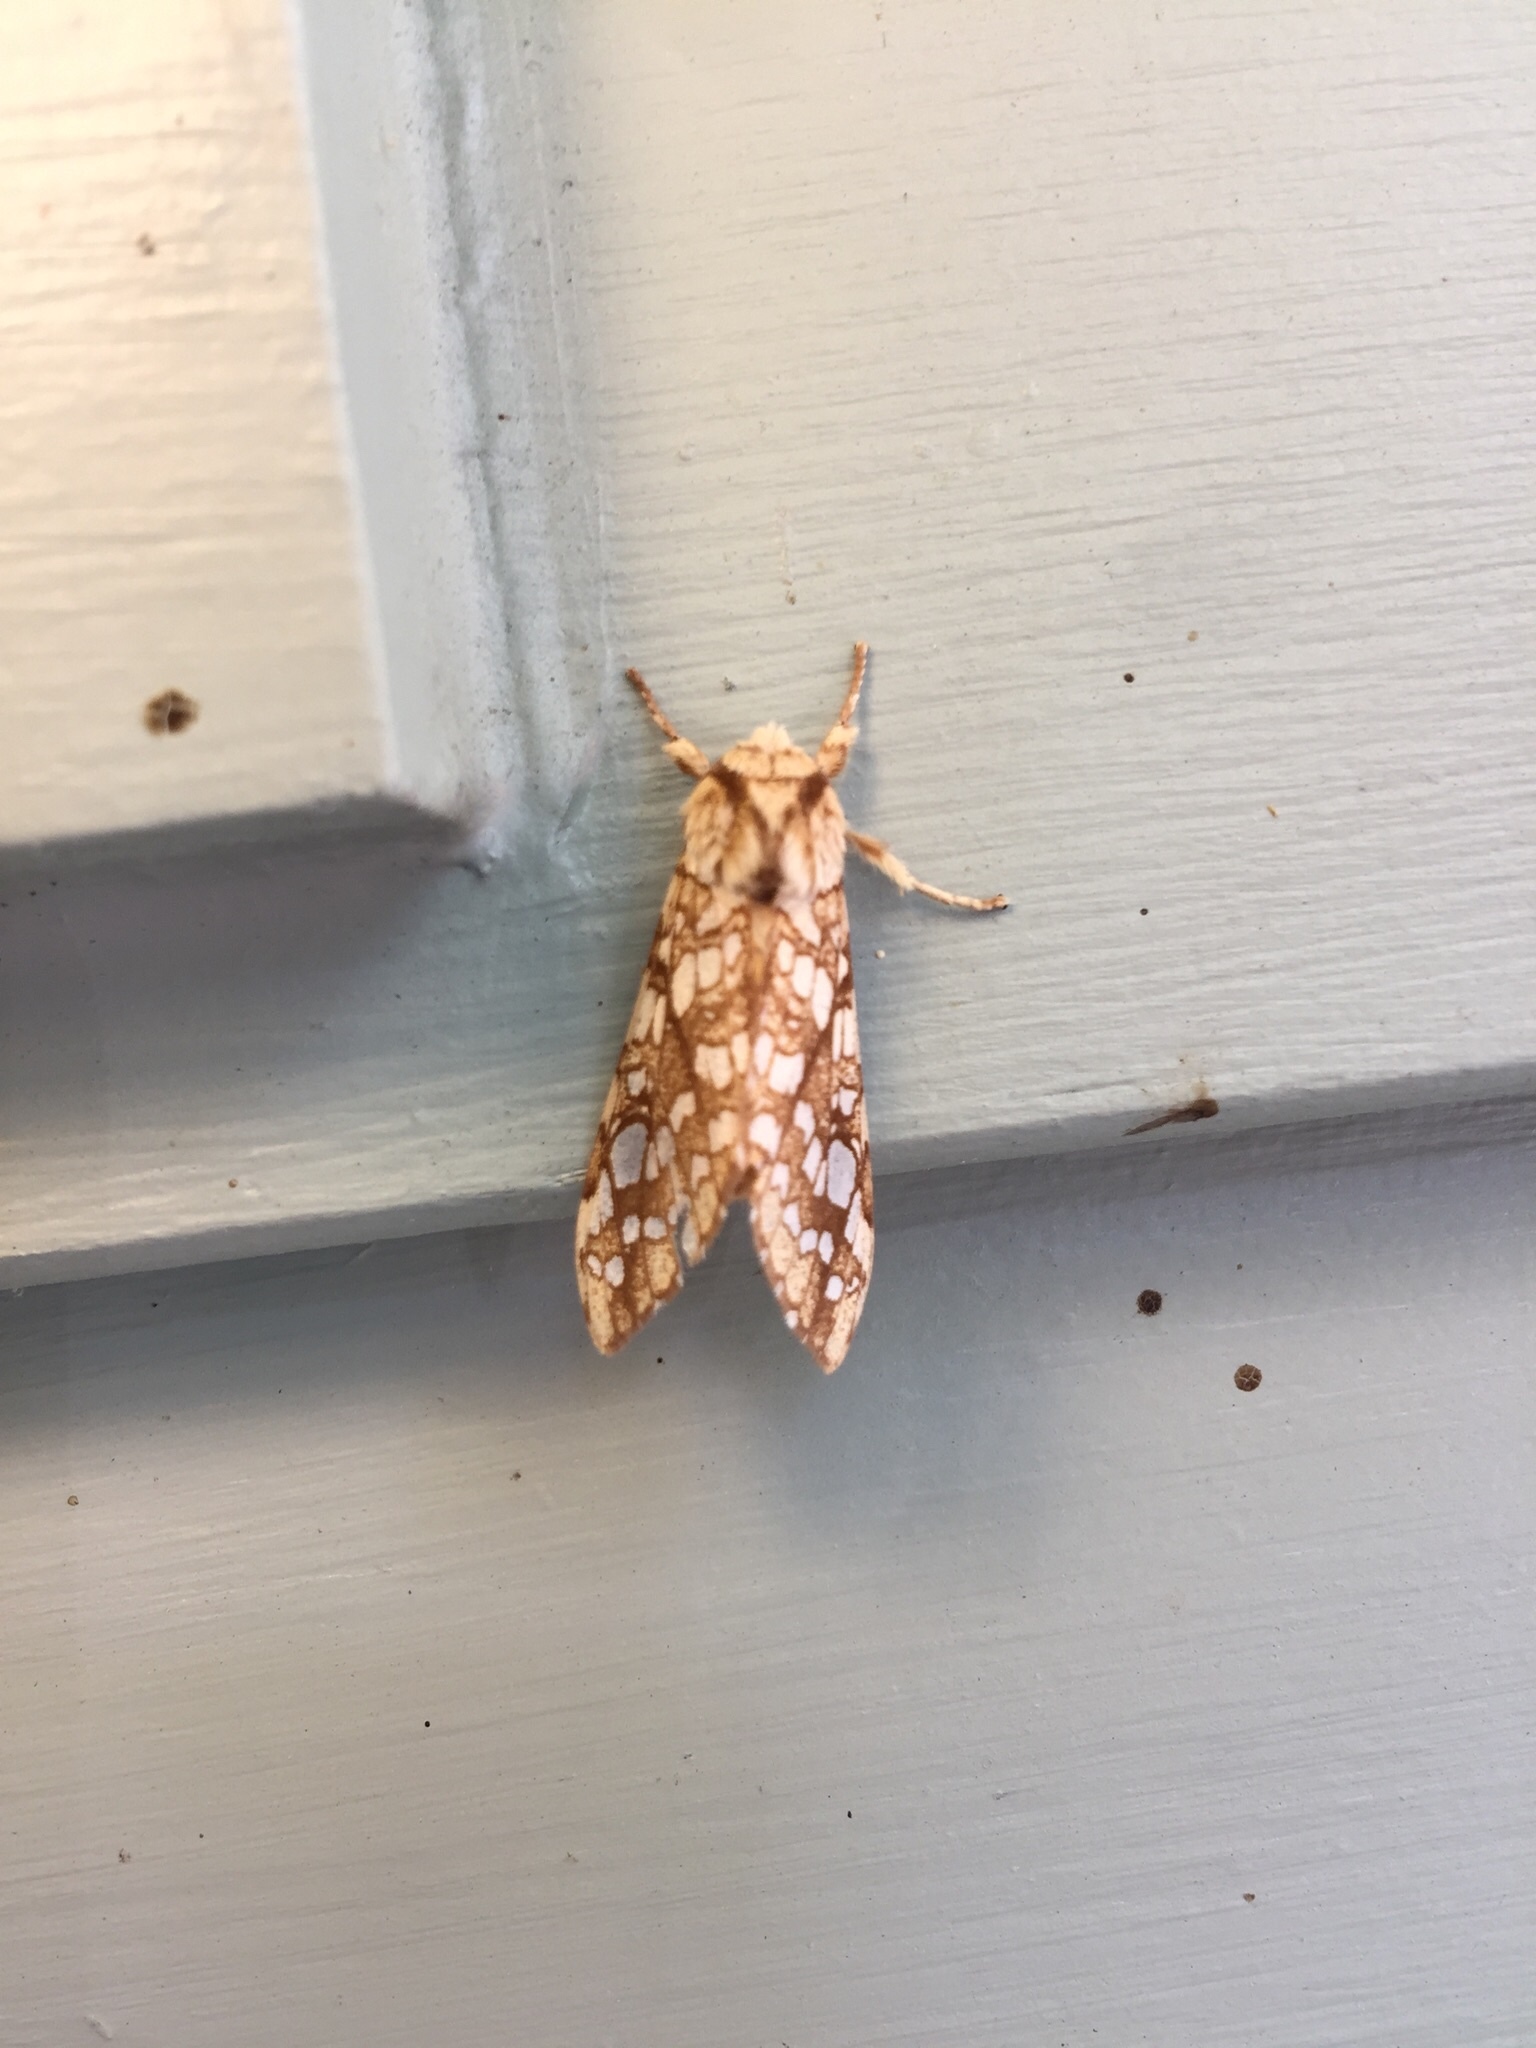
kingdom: Animalia
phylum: Arthropoda
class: Insecta
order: Lepidoptera
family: Erebidae
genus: Lophocampa
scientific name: Lophocampa caryae
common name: Hickory tussock moth
